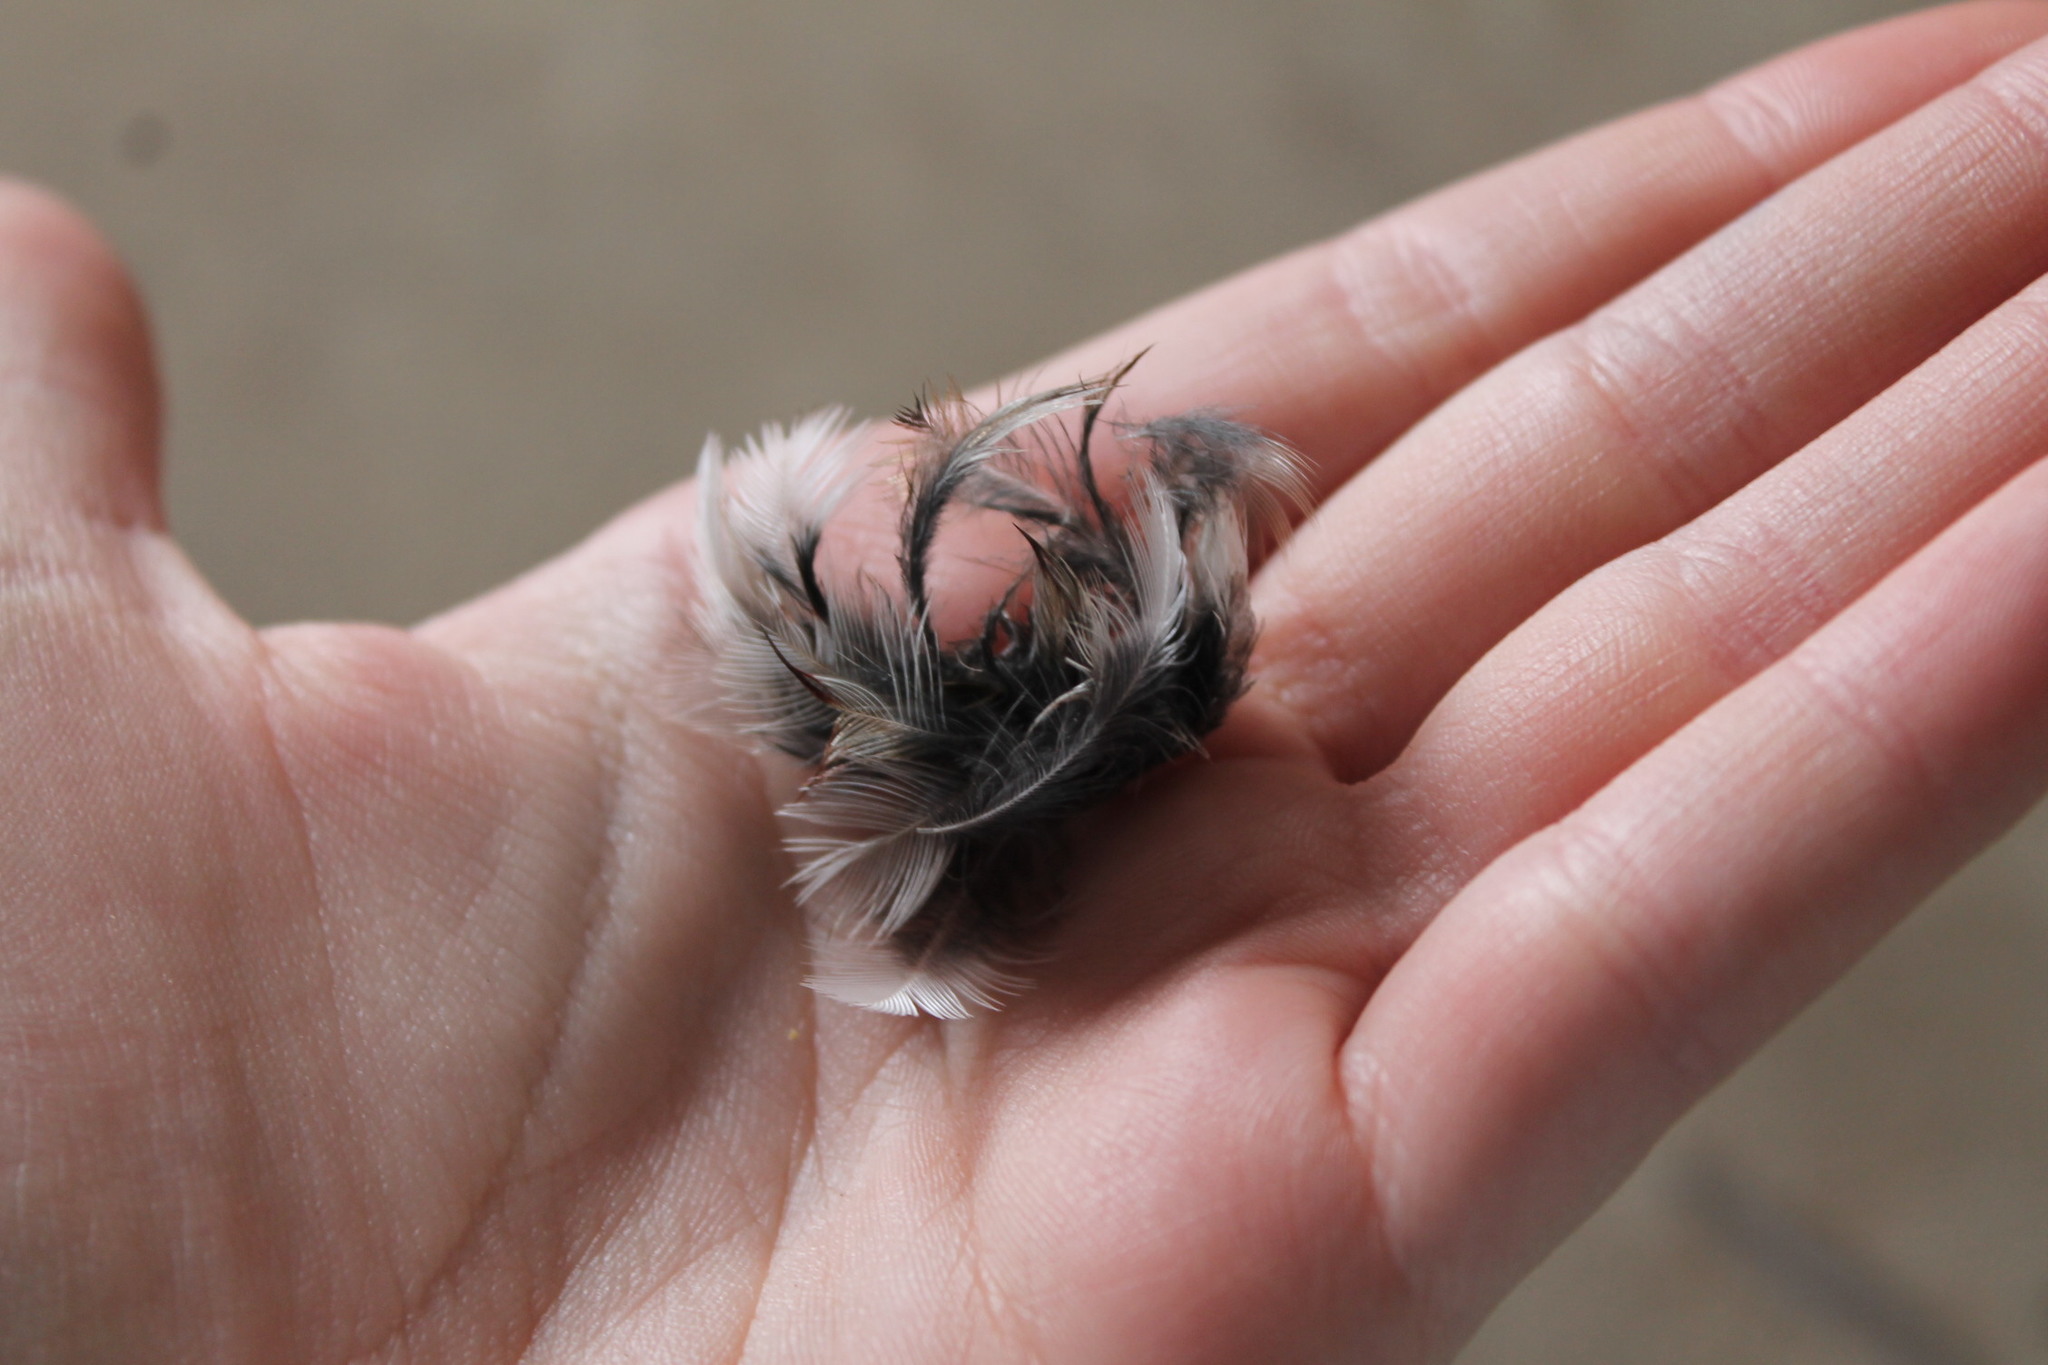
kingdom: Animalia
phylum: Chordata
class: Aves
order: Passeriformes
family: Passerellidae
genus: Zonotrichia
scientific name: Zonotrichia albicollis
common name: White-throated sparrow
